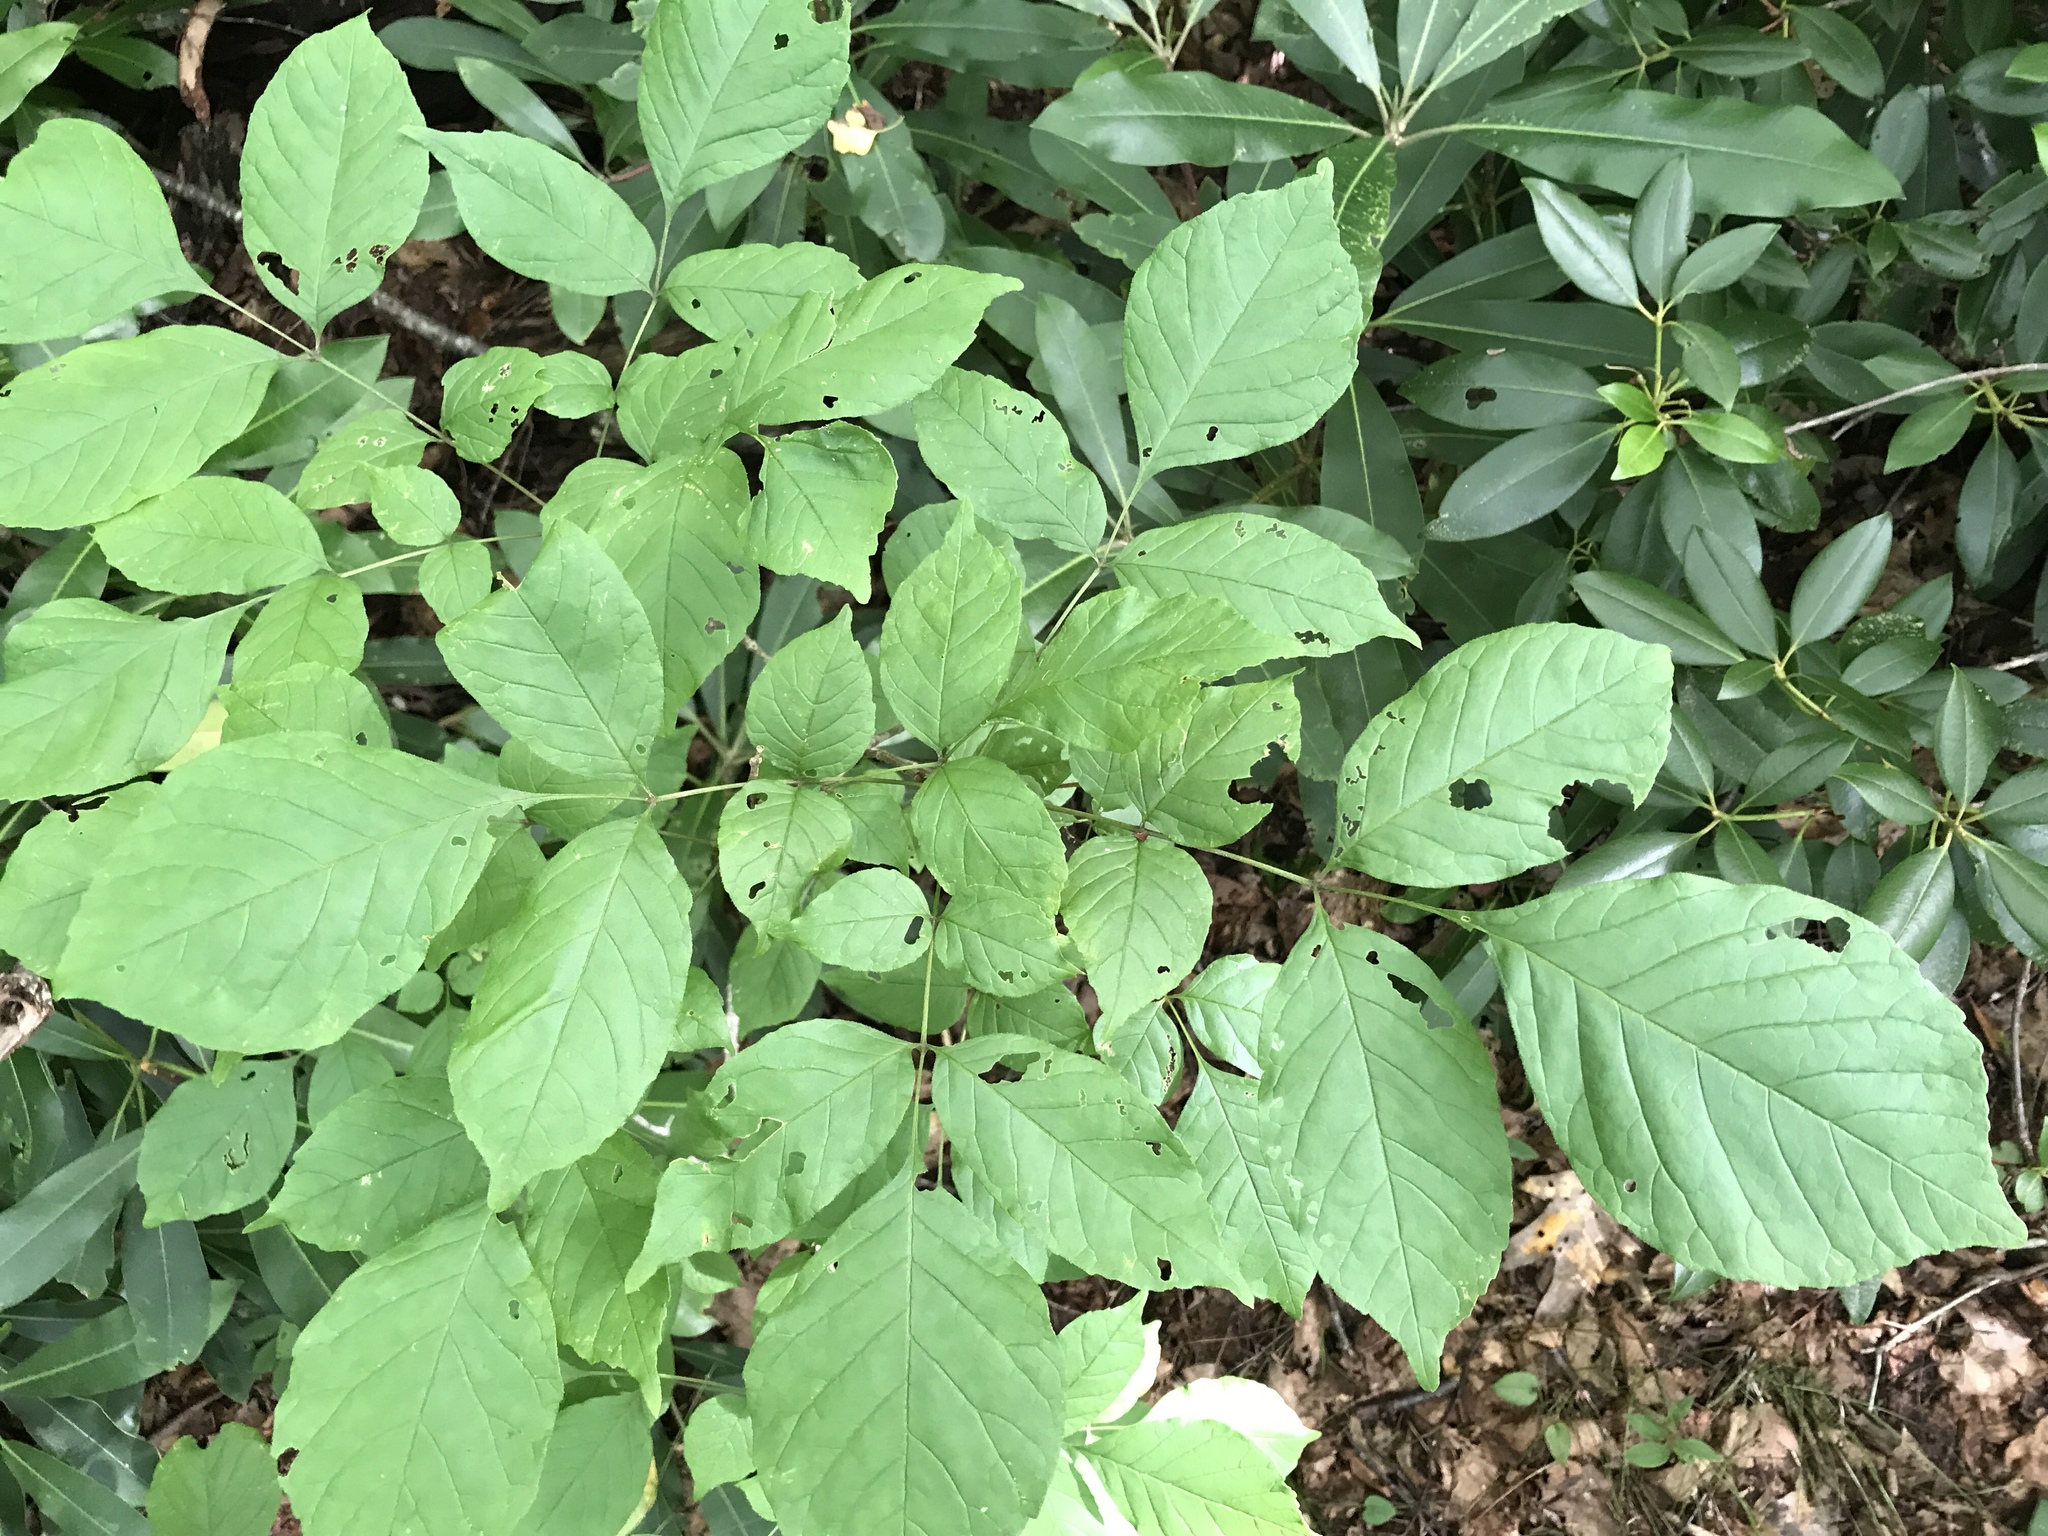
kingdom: Plantae
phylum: Tracheophyta
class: Magnoliopsida
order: Lamiales
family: Oleaceae
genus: Fraxinus
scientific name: Fraxinus americana
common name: White ash
